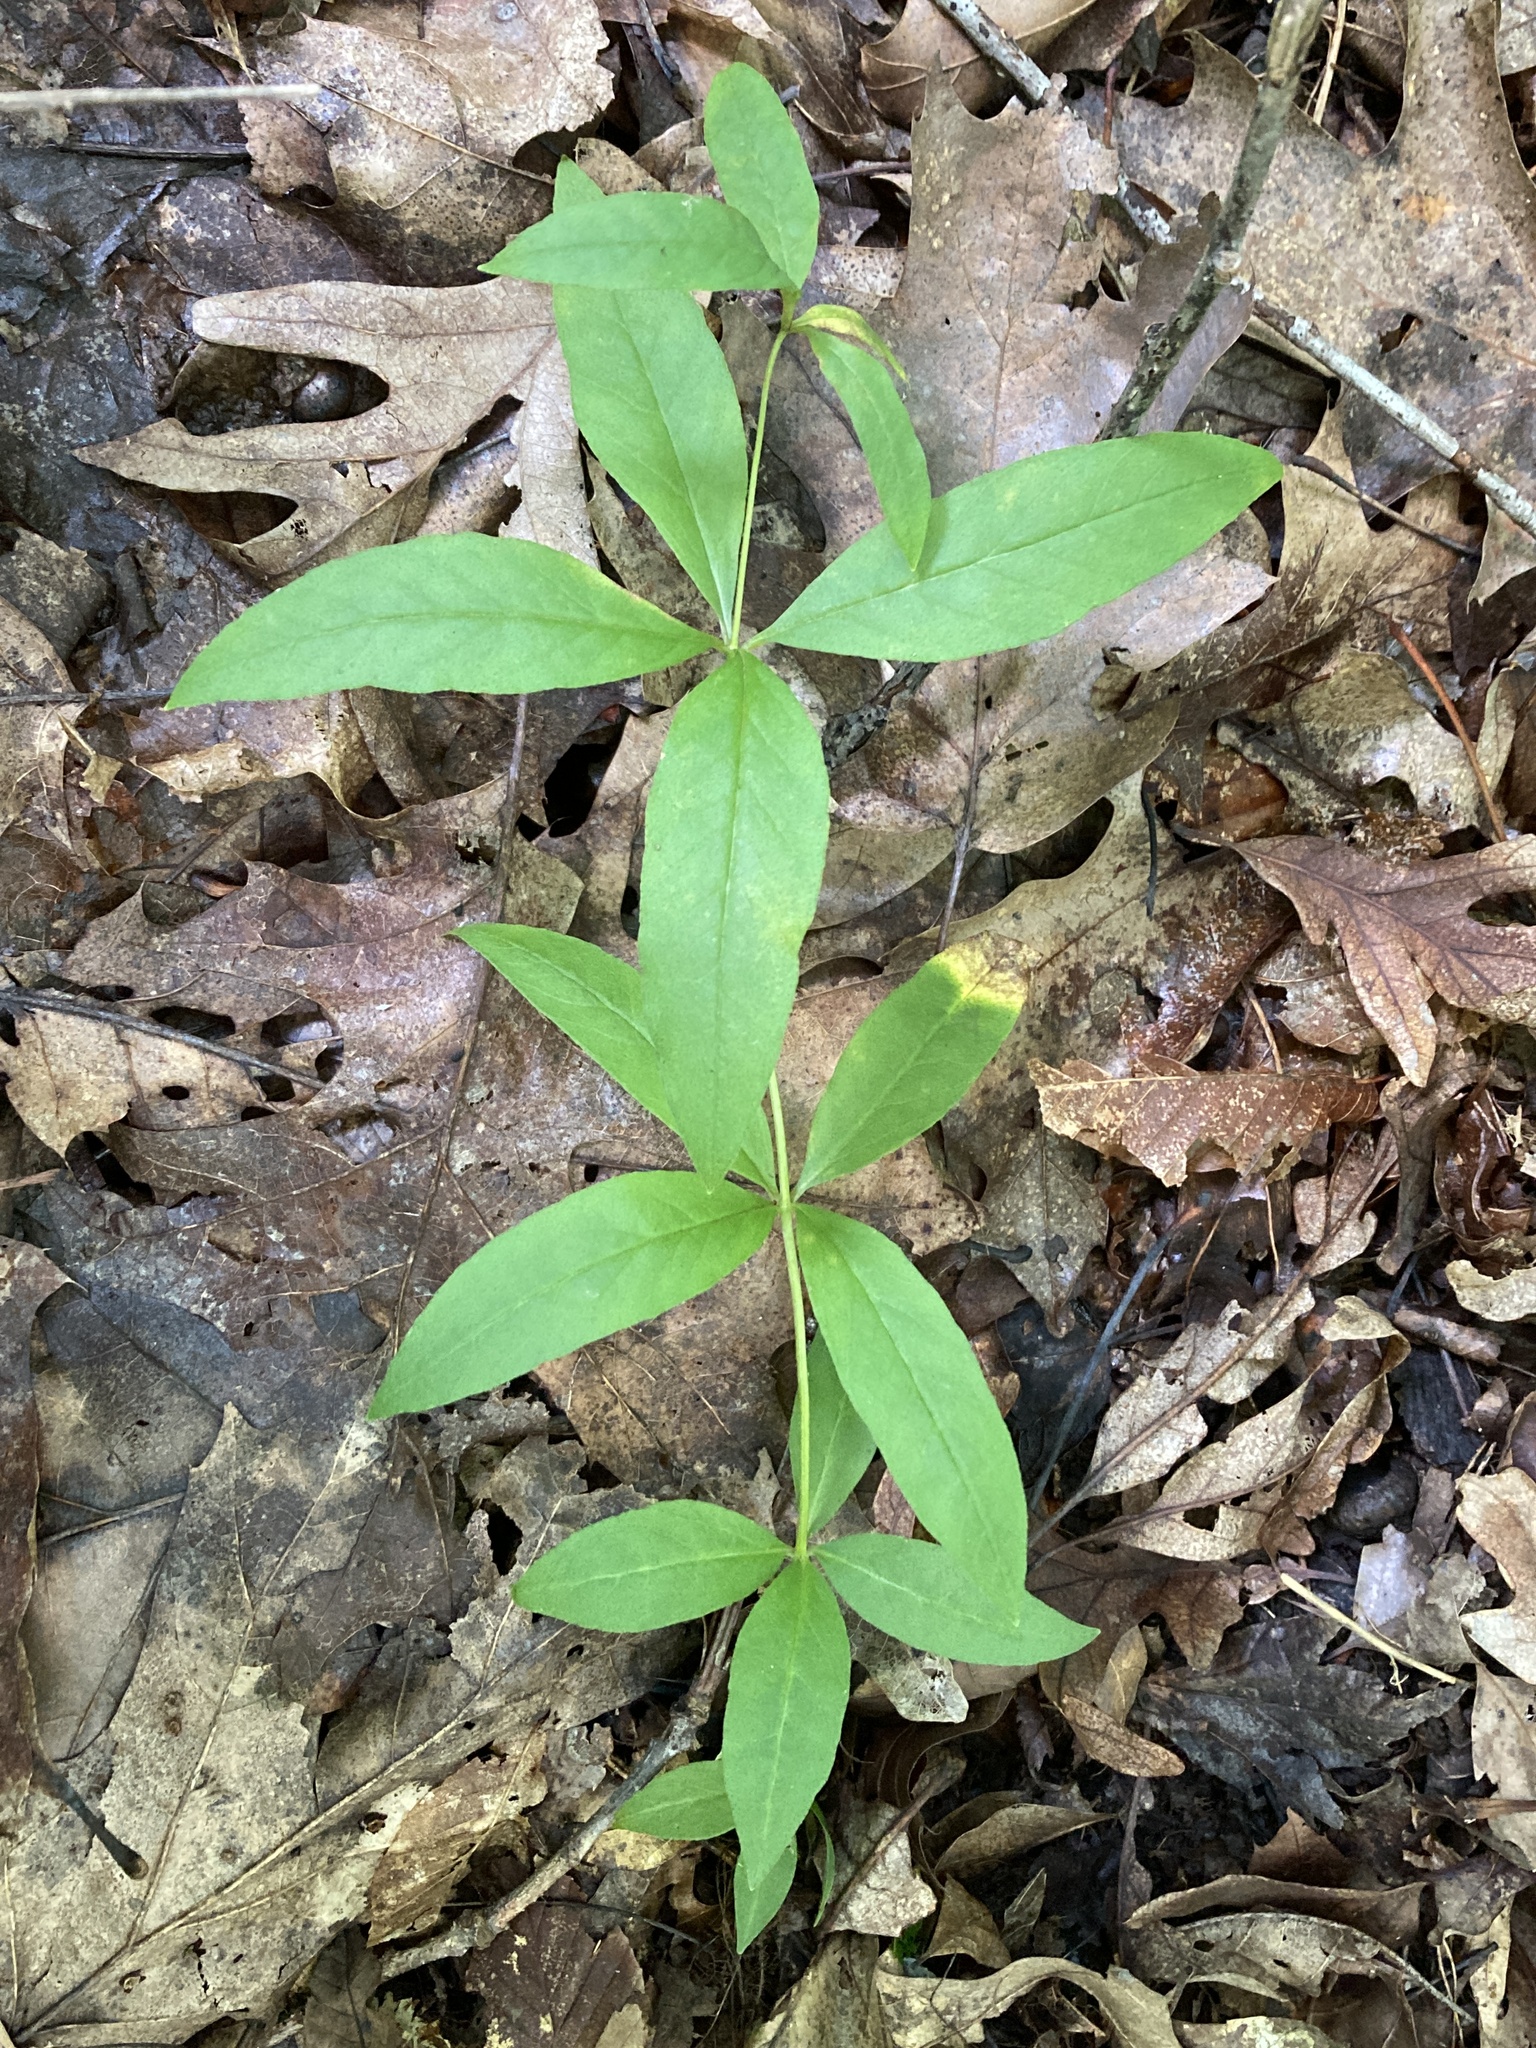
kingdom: Plantae
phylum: Tracheophyta
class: Magnoliopsida
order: Ericales
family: Primulaceae
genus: Lysimachia
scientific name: Lysimachia quadrifolia
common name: Whorled loosestrife
